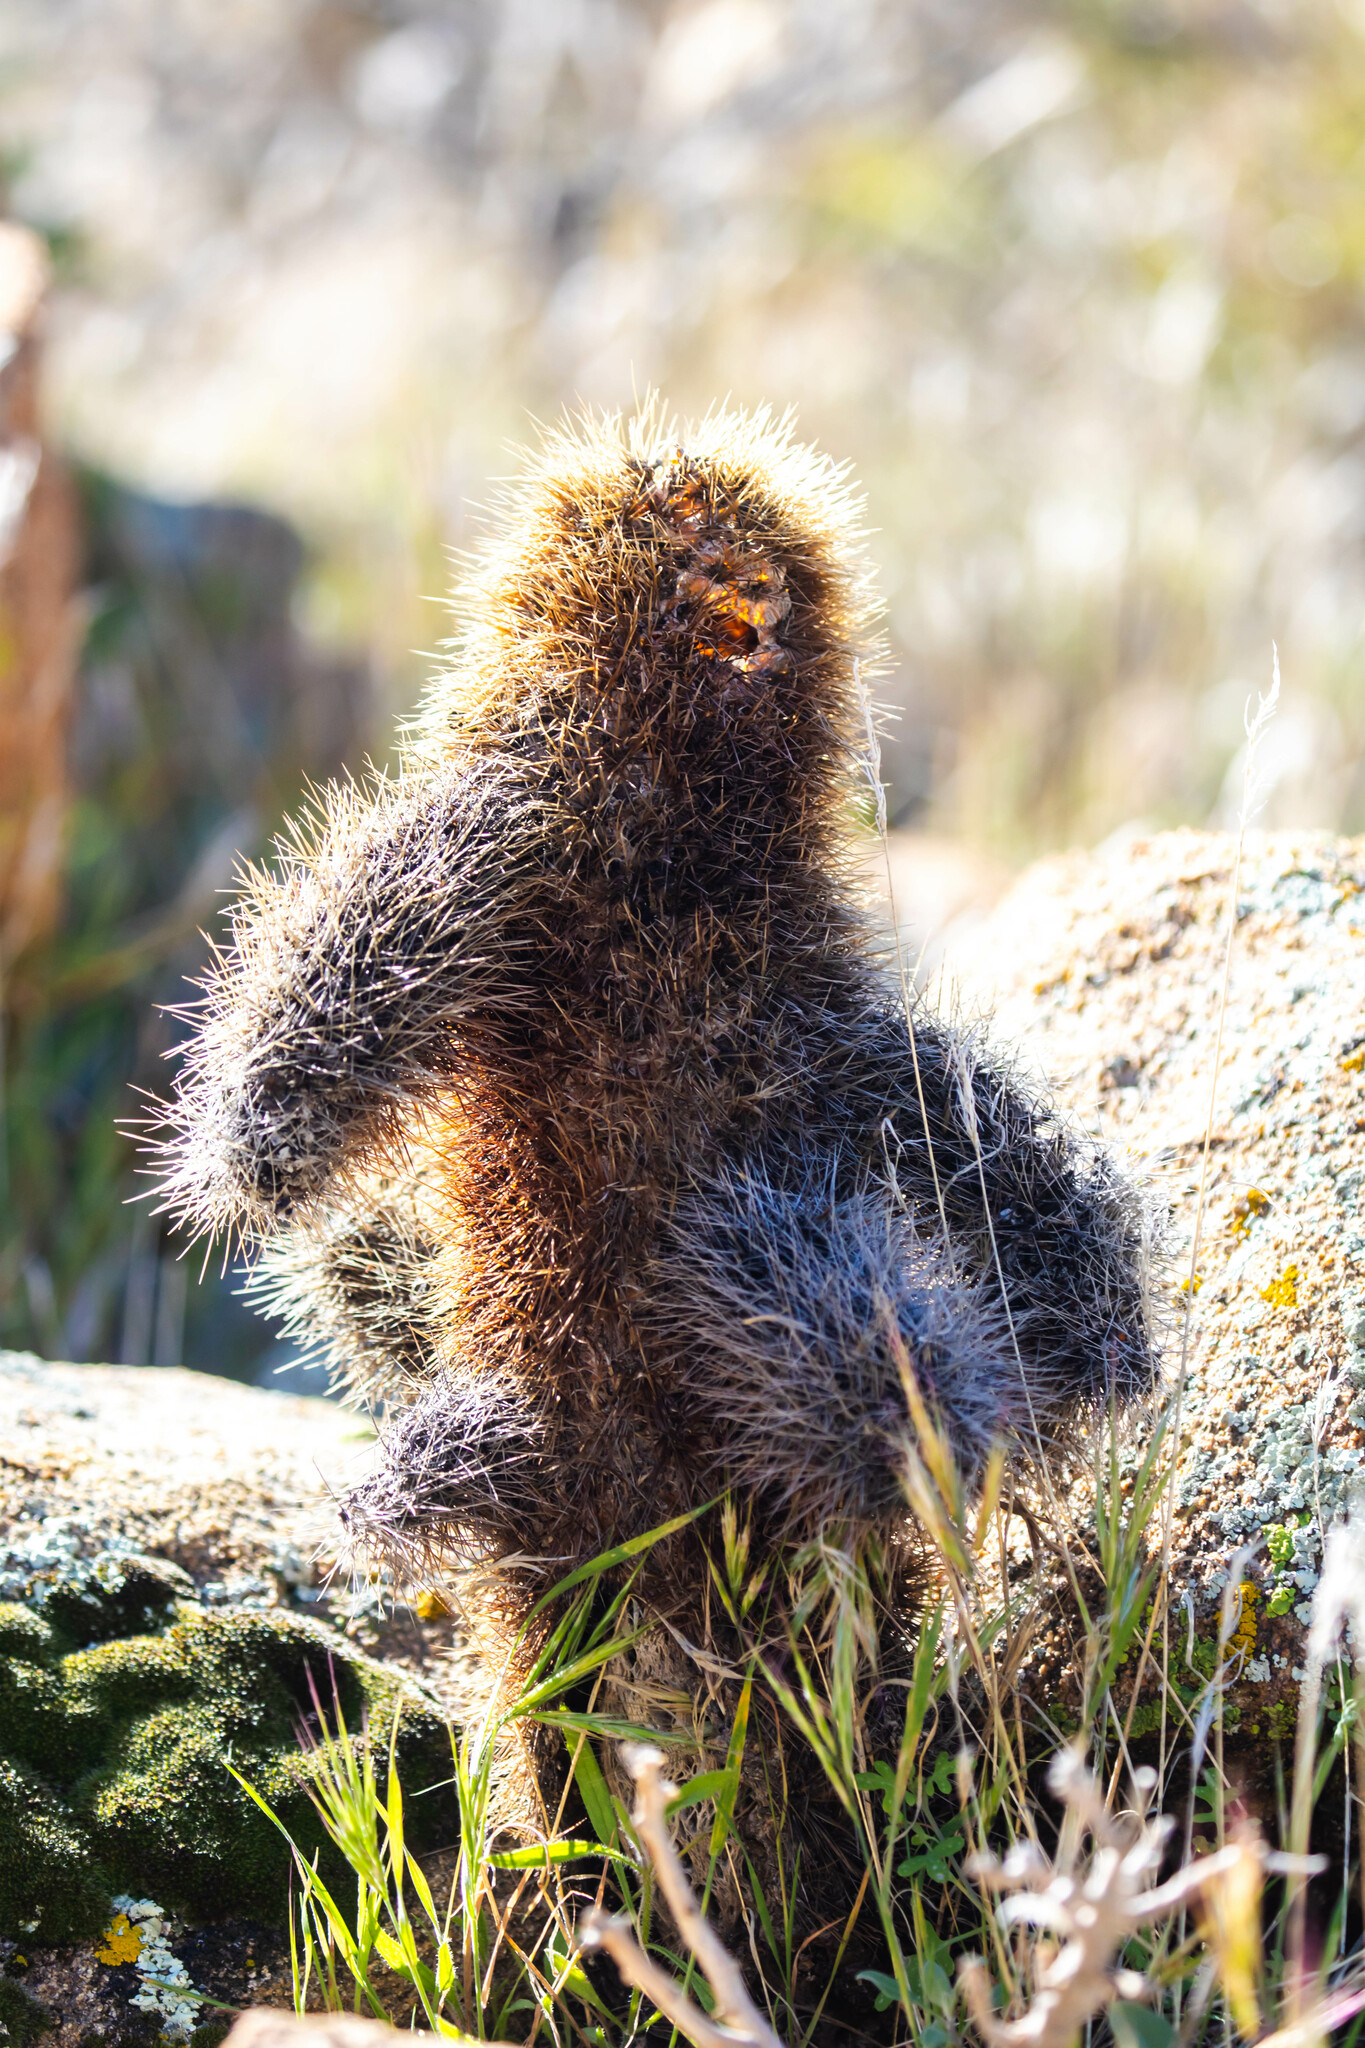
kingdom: Plantae
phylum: Tracheophyta
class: Magnoliopsida
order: Caryophyllales
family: Cactaceae
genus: Cylindropuntia
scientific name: Cylindropuntia fosbergii
